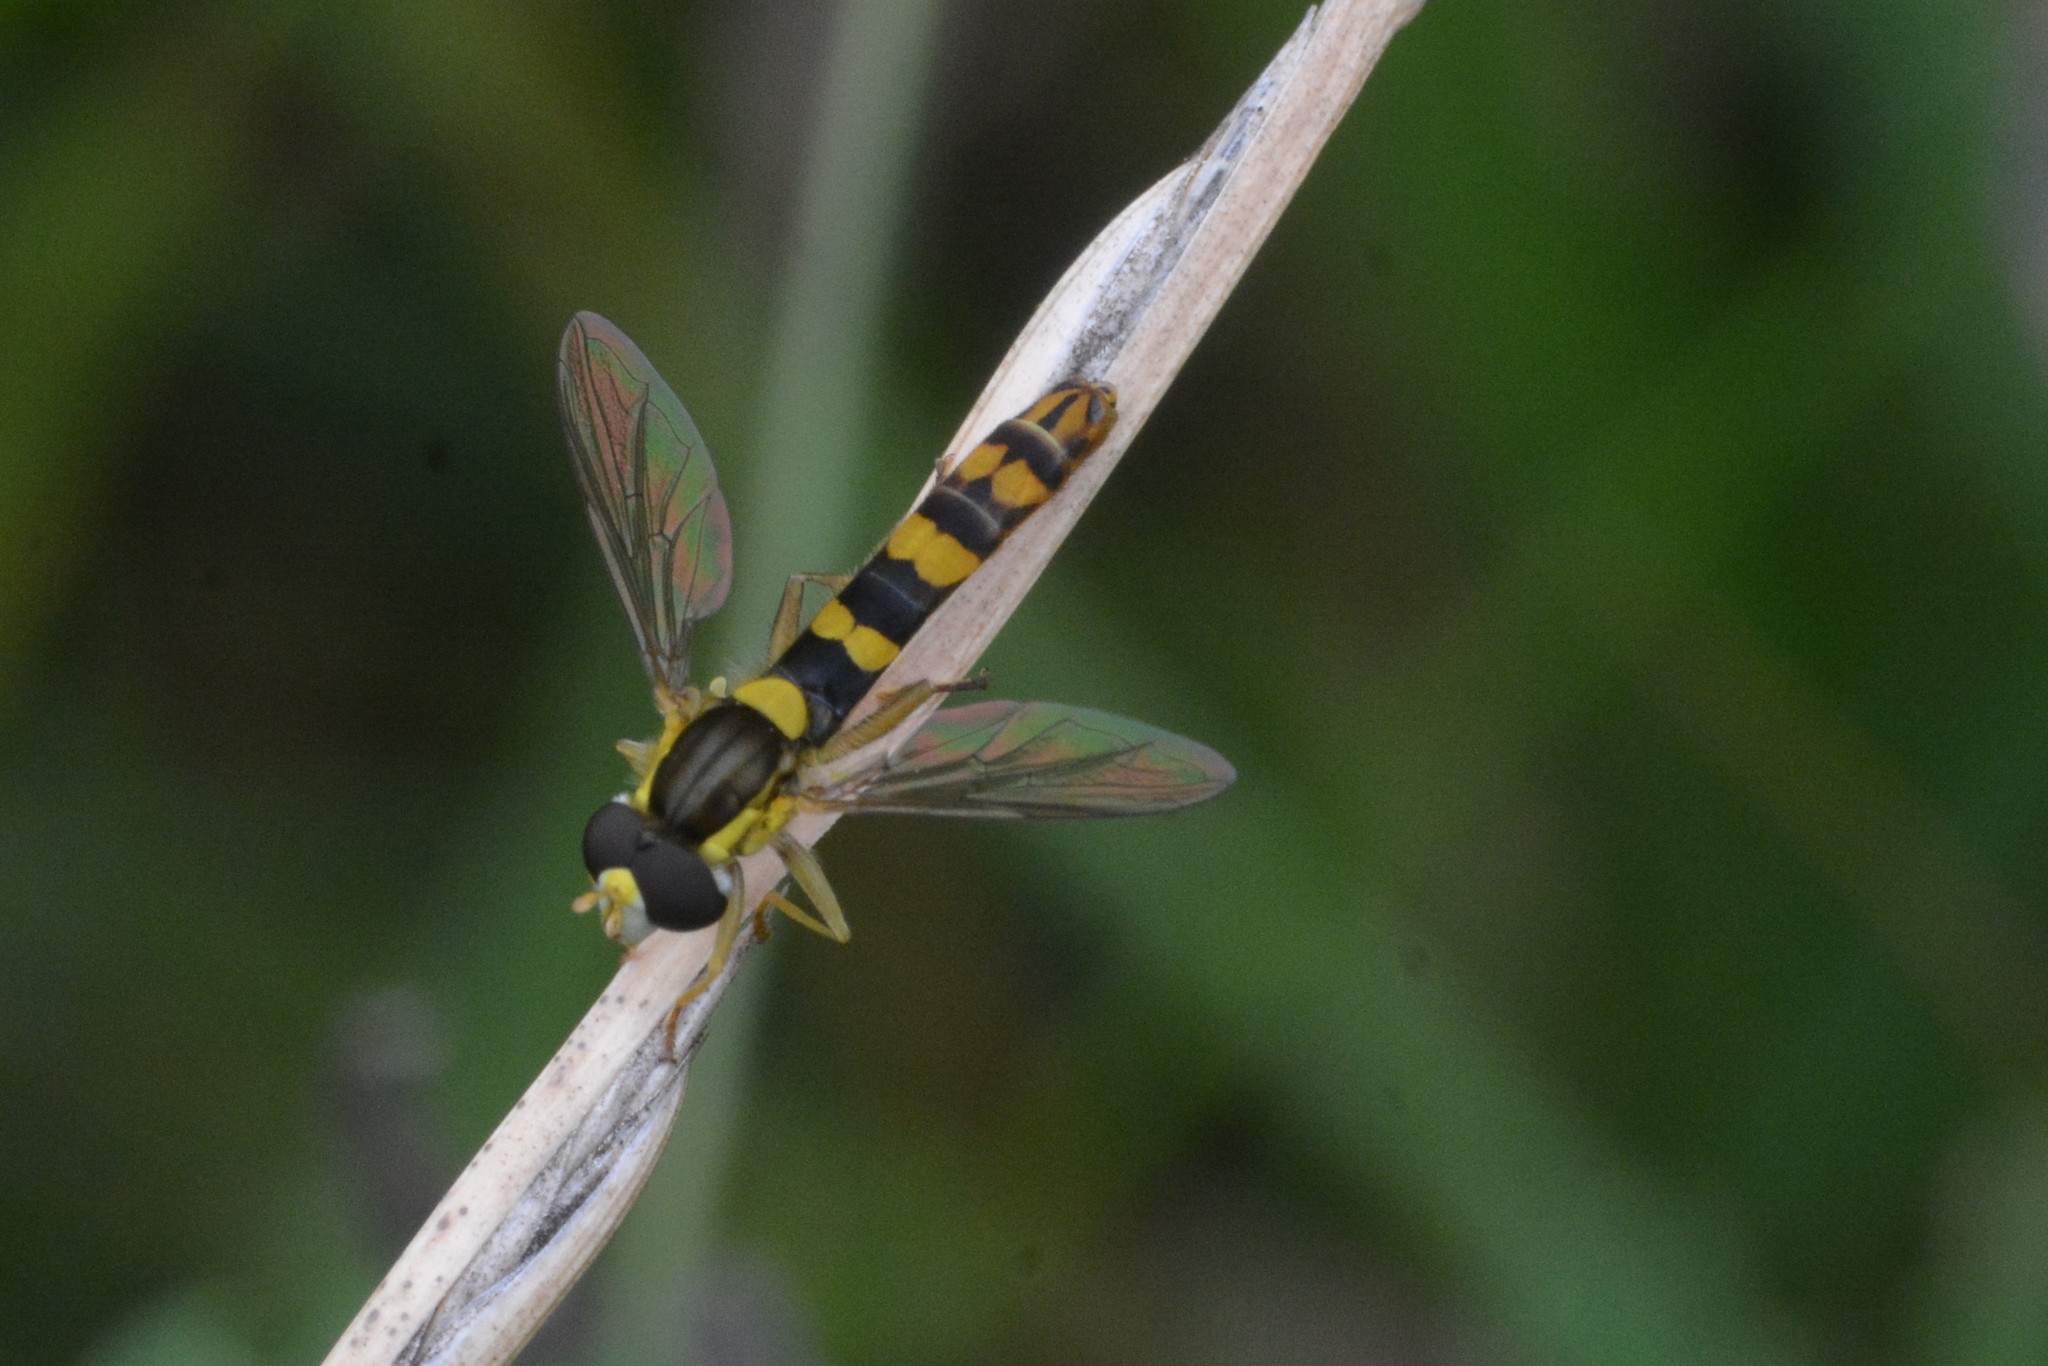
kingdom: Animalia
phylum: Arthropoda
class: Insecta
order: Diptera
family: Syrphidae
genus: Sphaerophoria
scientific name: Sphaerophoria scripta
